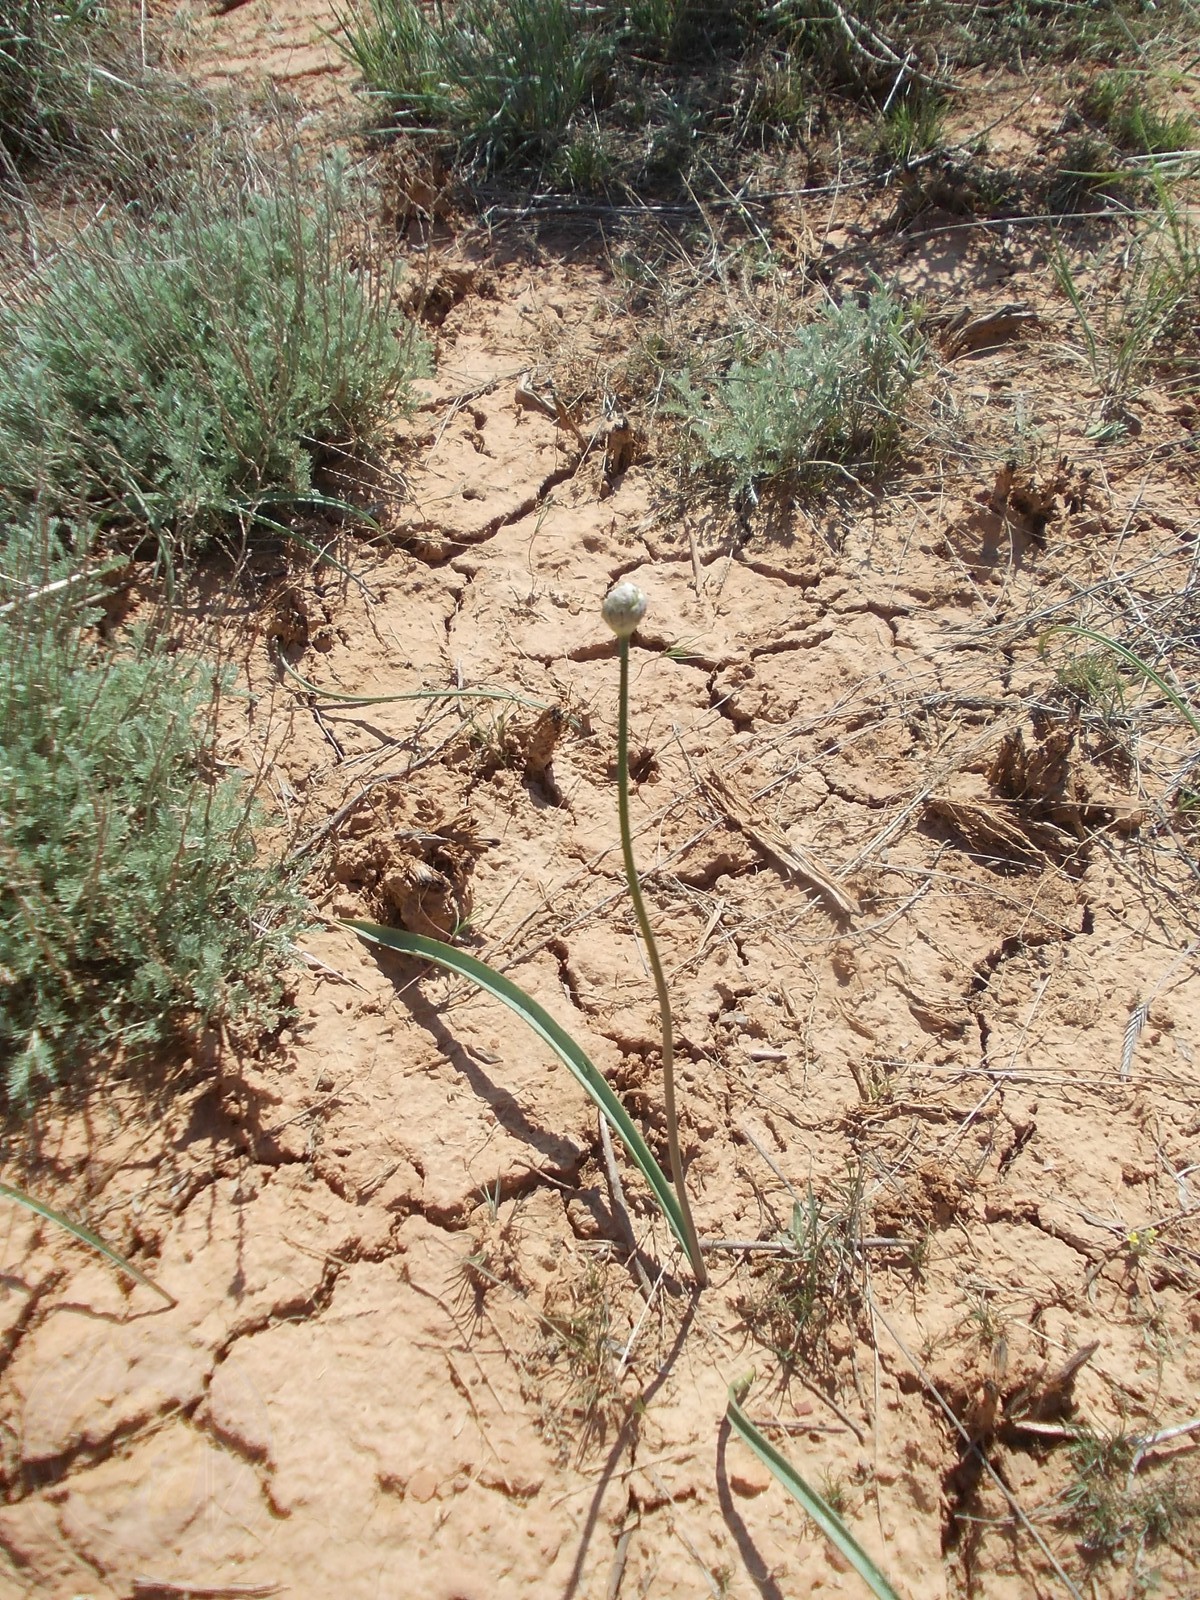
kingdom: Plantae
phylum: Tracheophyta
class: Liliopsida
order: Asparagales
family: Amaryllidaceae
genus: Allium
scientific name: Allium tulipifolium
